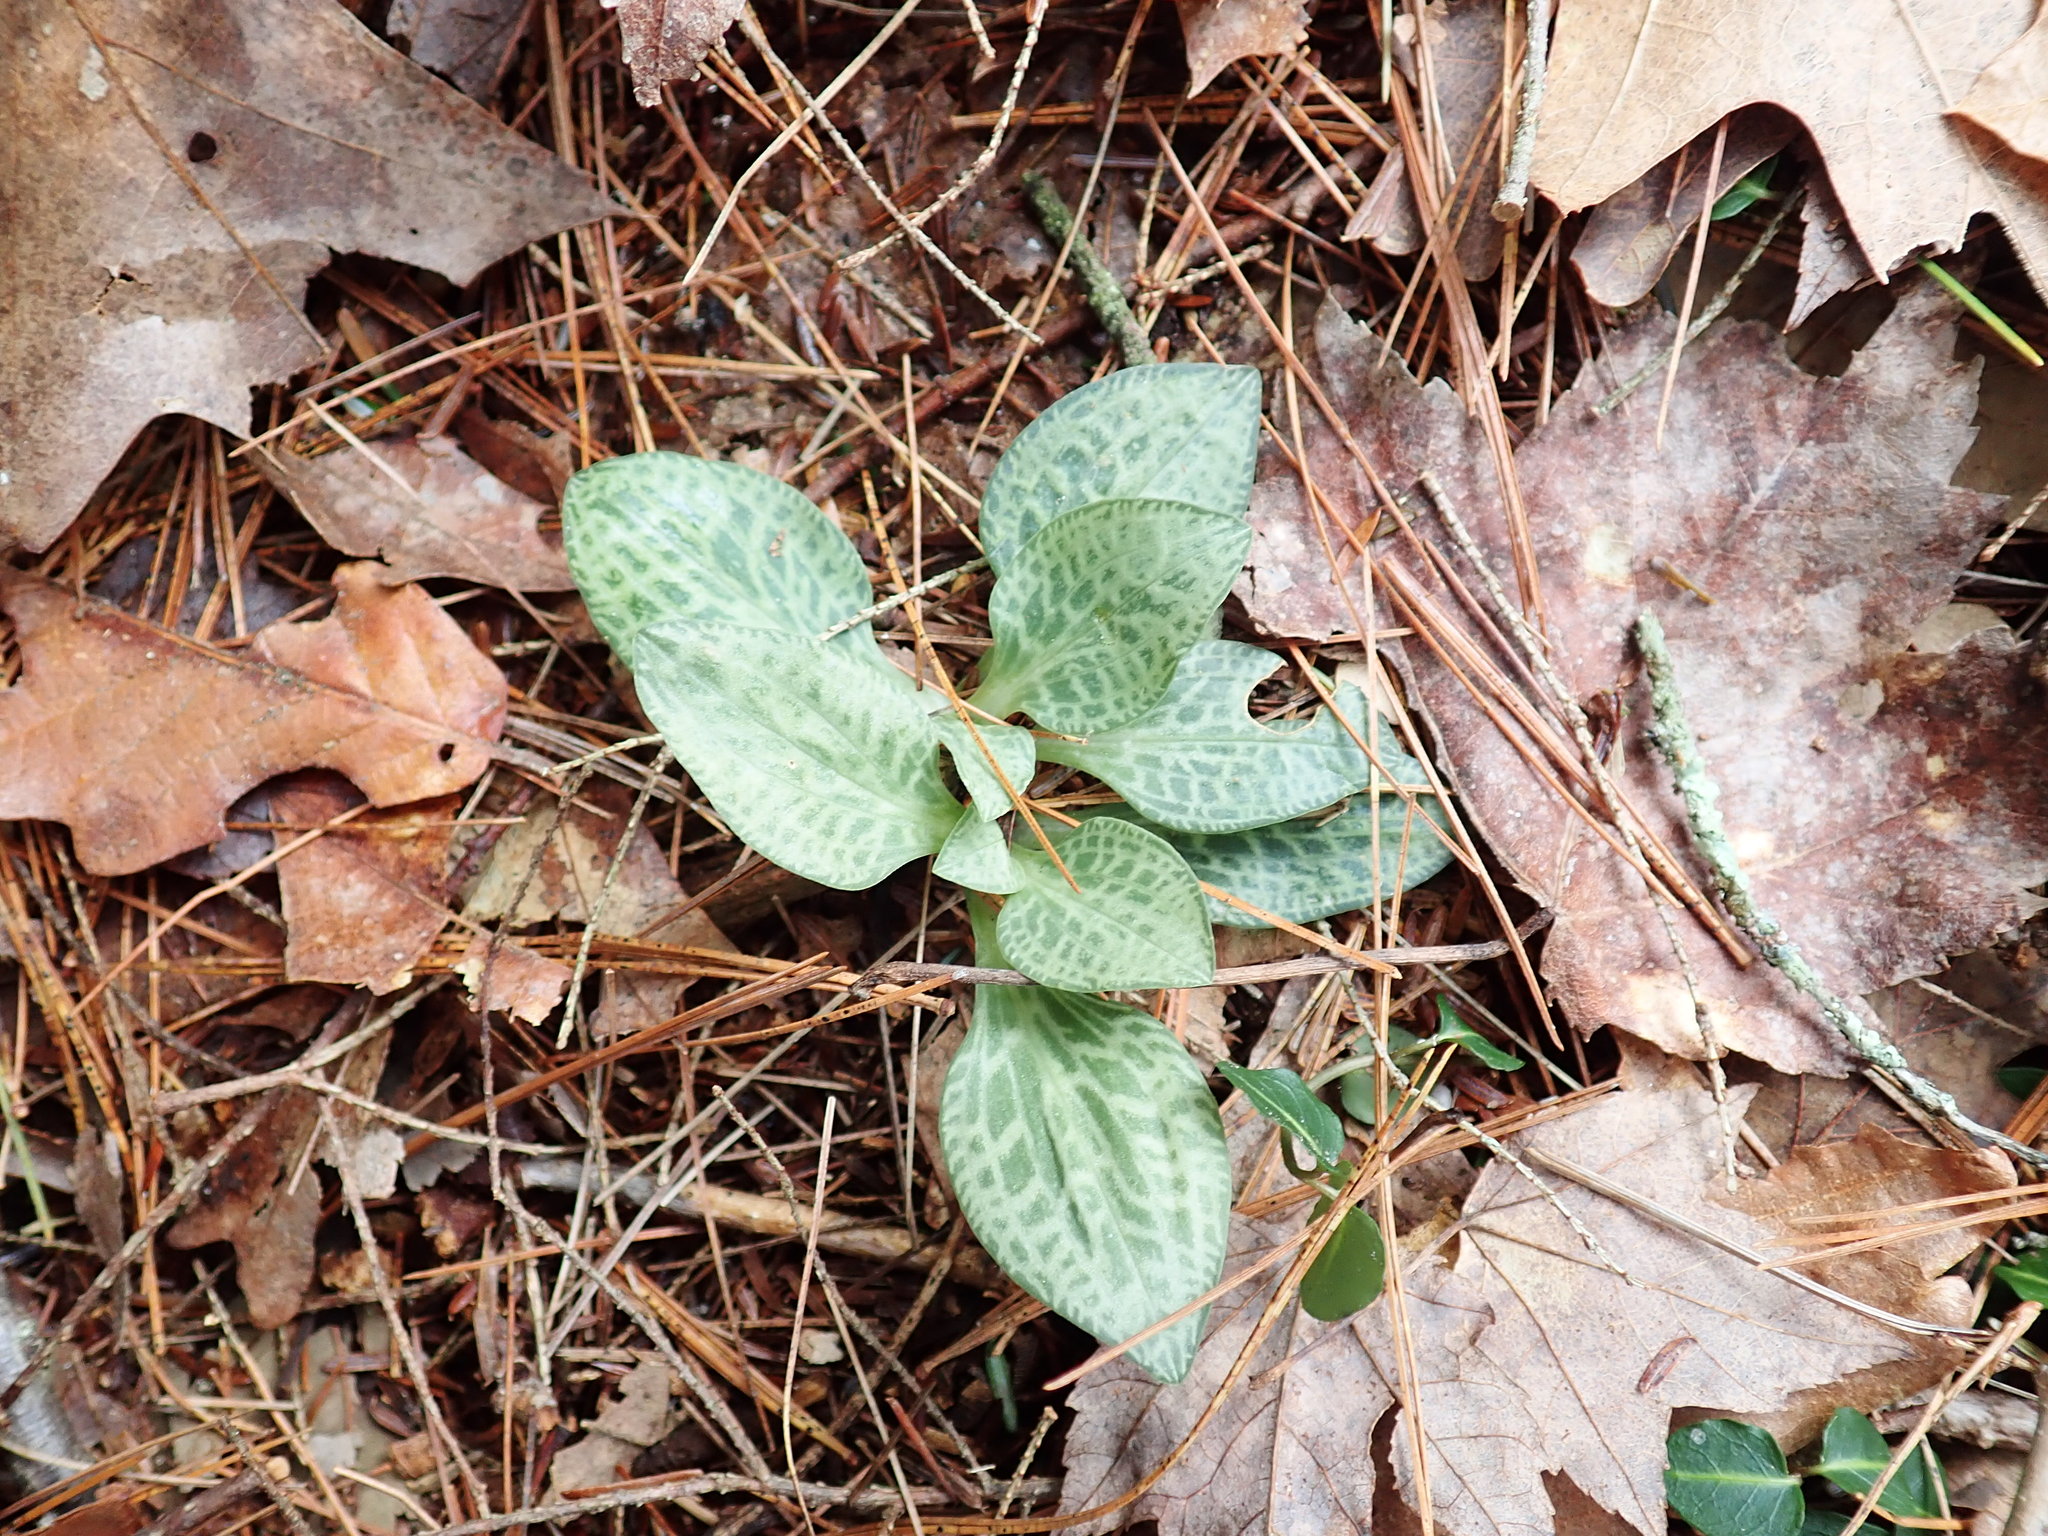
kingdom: Plantae
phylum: Tracheophyta
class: Liliopsida
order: Asparagales
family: Orchidaceae
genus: Goodyera
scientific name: Goodyera tesselata
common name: Checkered rattlesnake-plantain
